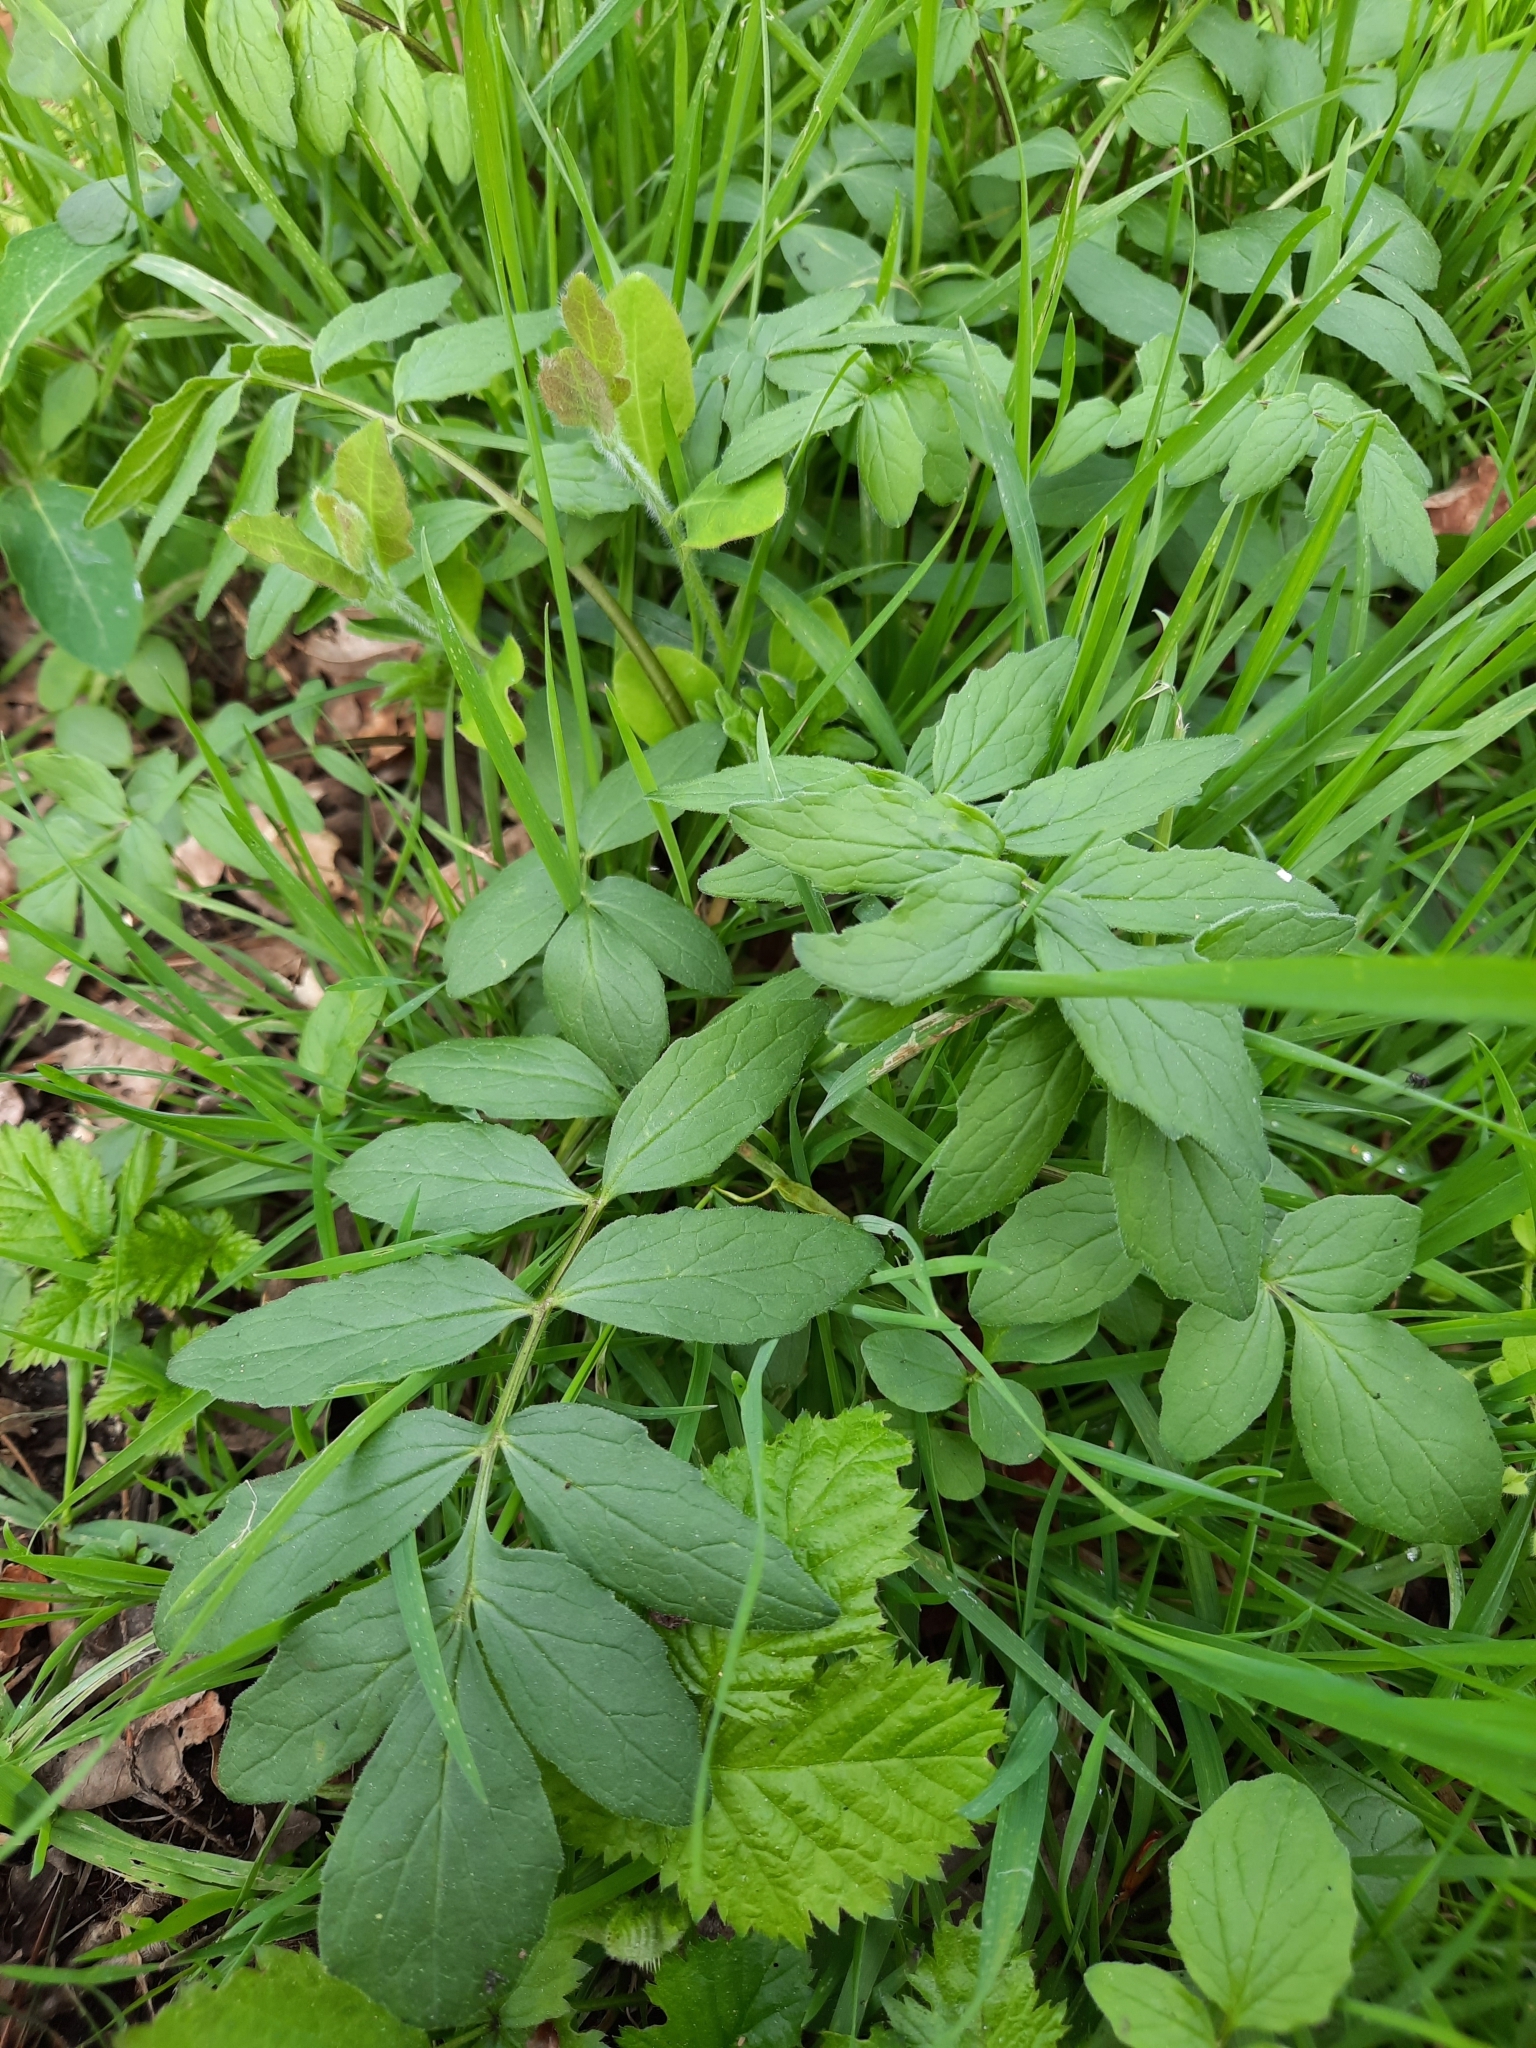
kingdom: Plantae
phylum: Tracheophyta
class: Magnoliopsida
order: Dipsacales
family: Caprifoliaceae
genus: Valeriana
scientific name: Valeriana officinalis
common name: Common valerian
